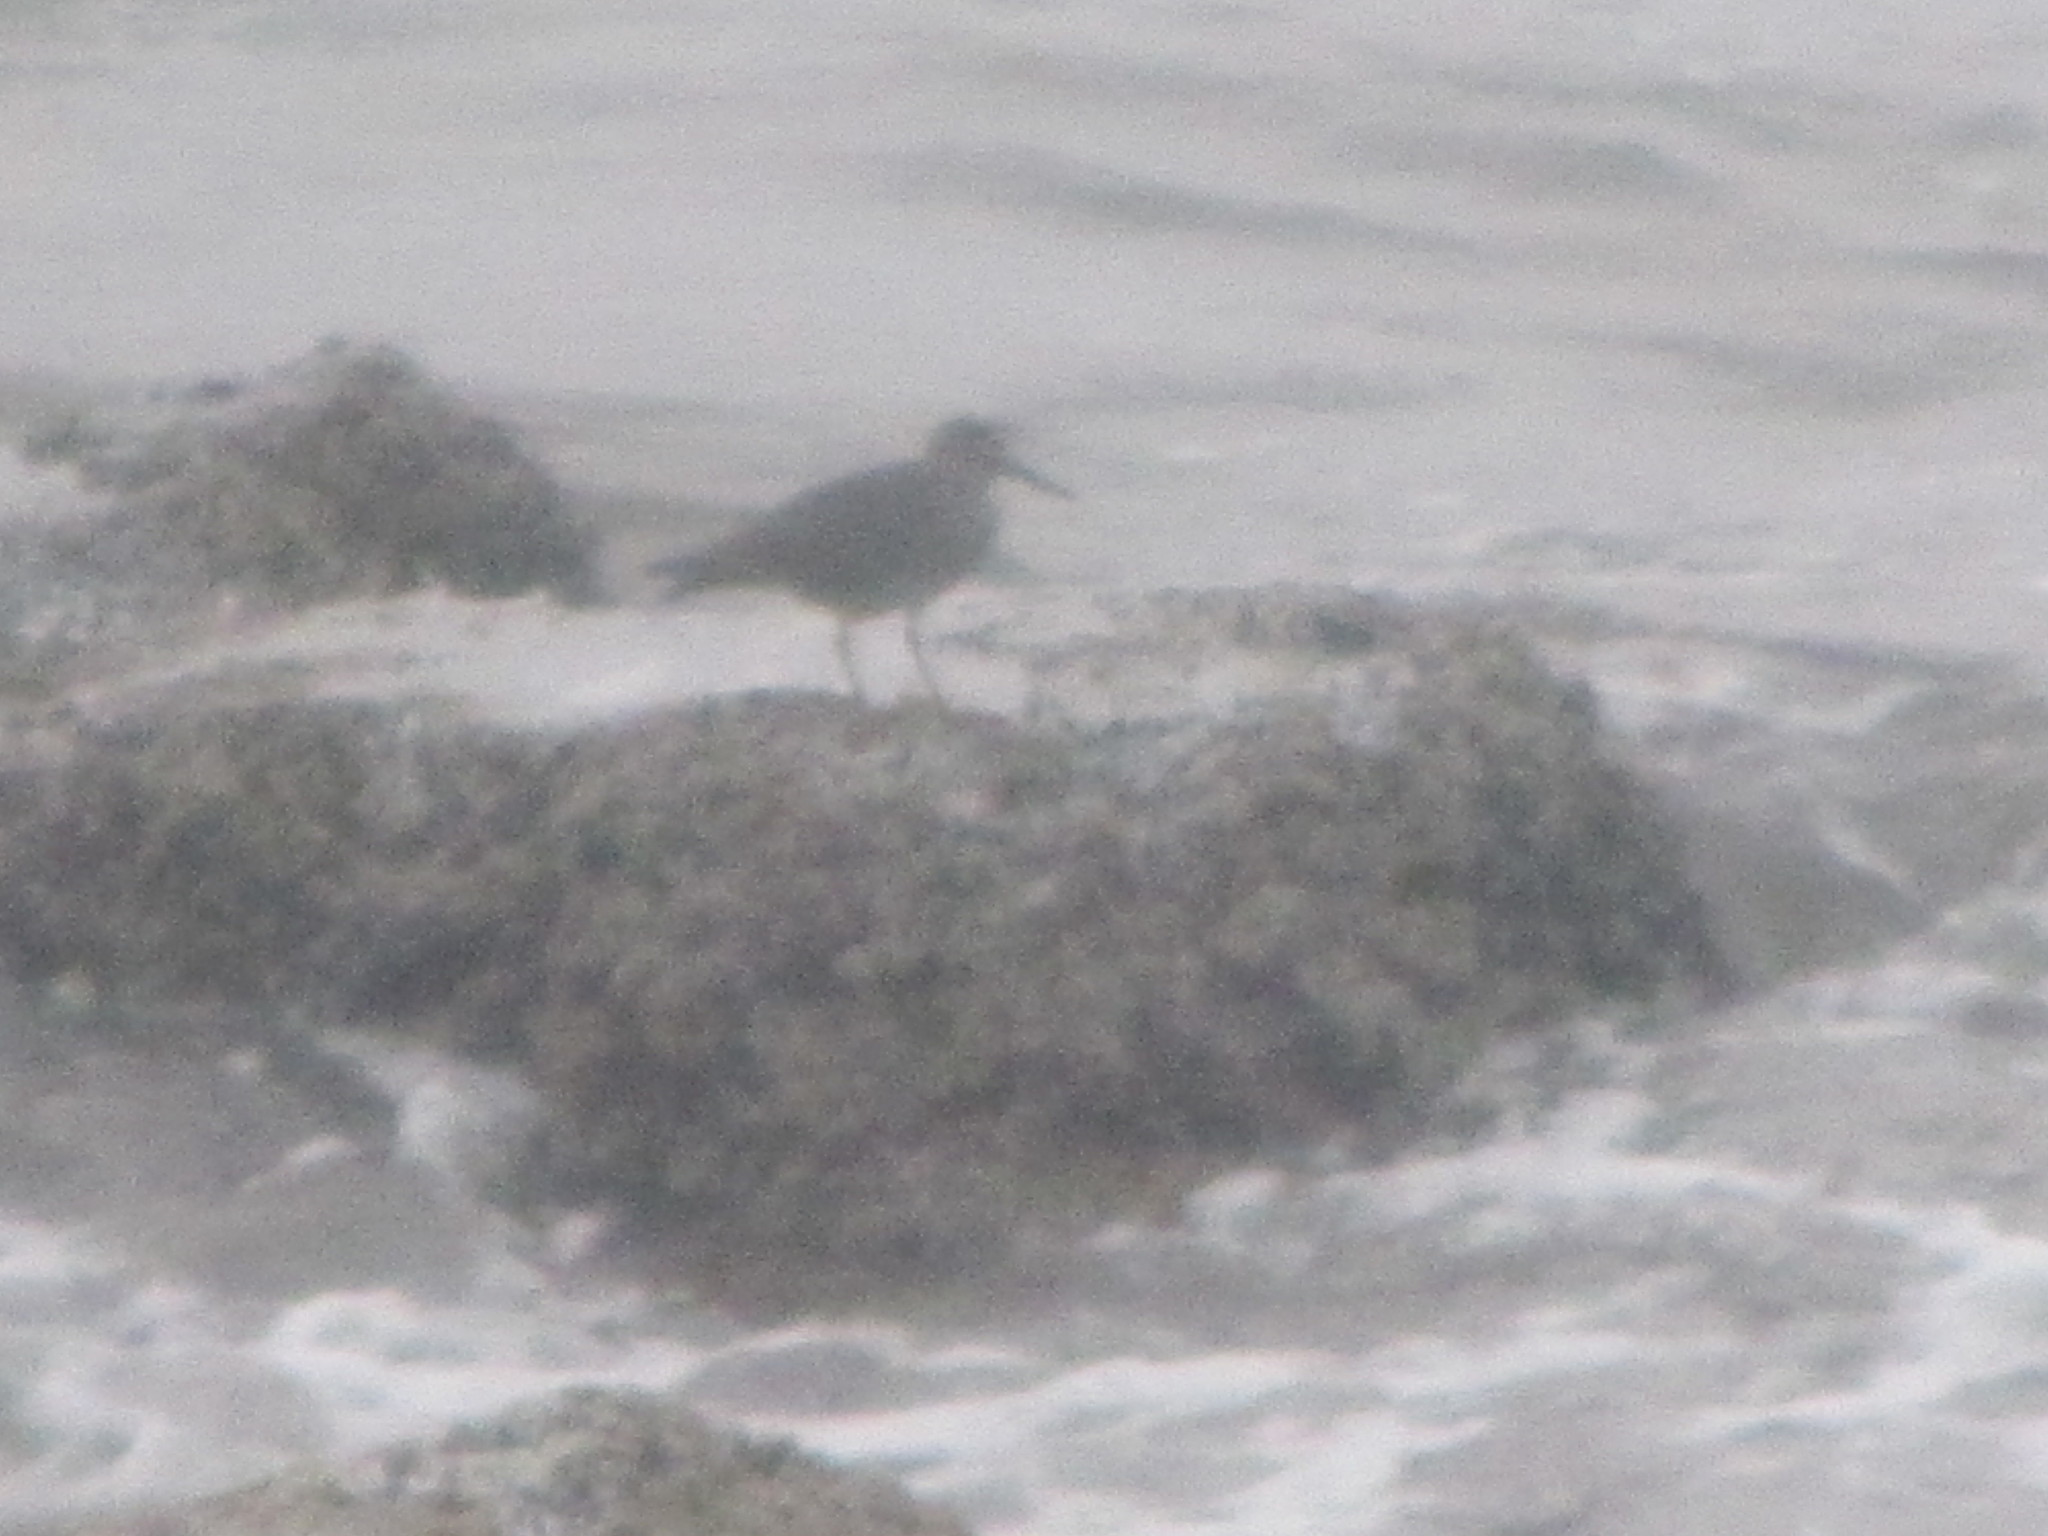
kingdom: Animalia
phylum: Chordata
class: Aves
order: Charadriiformes
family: Scolopacidae
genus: Tringa
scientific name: Tringa incana
